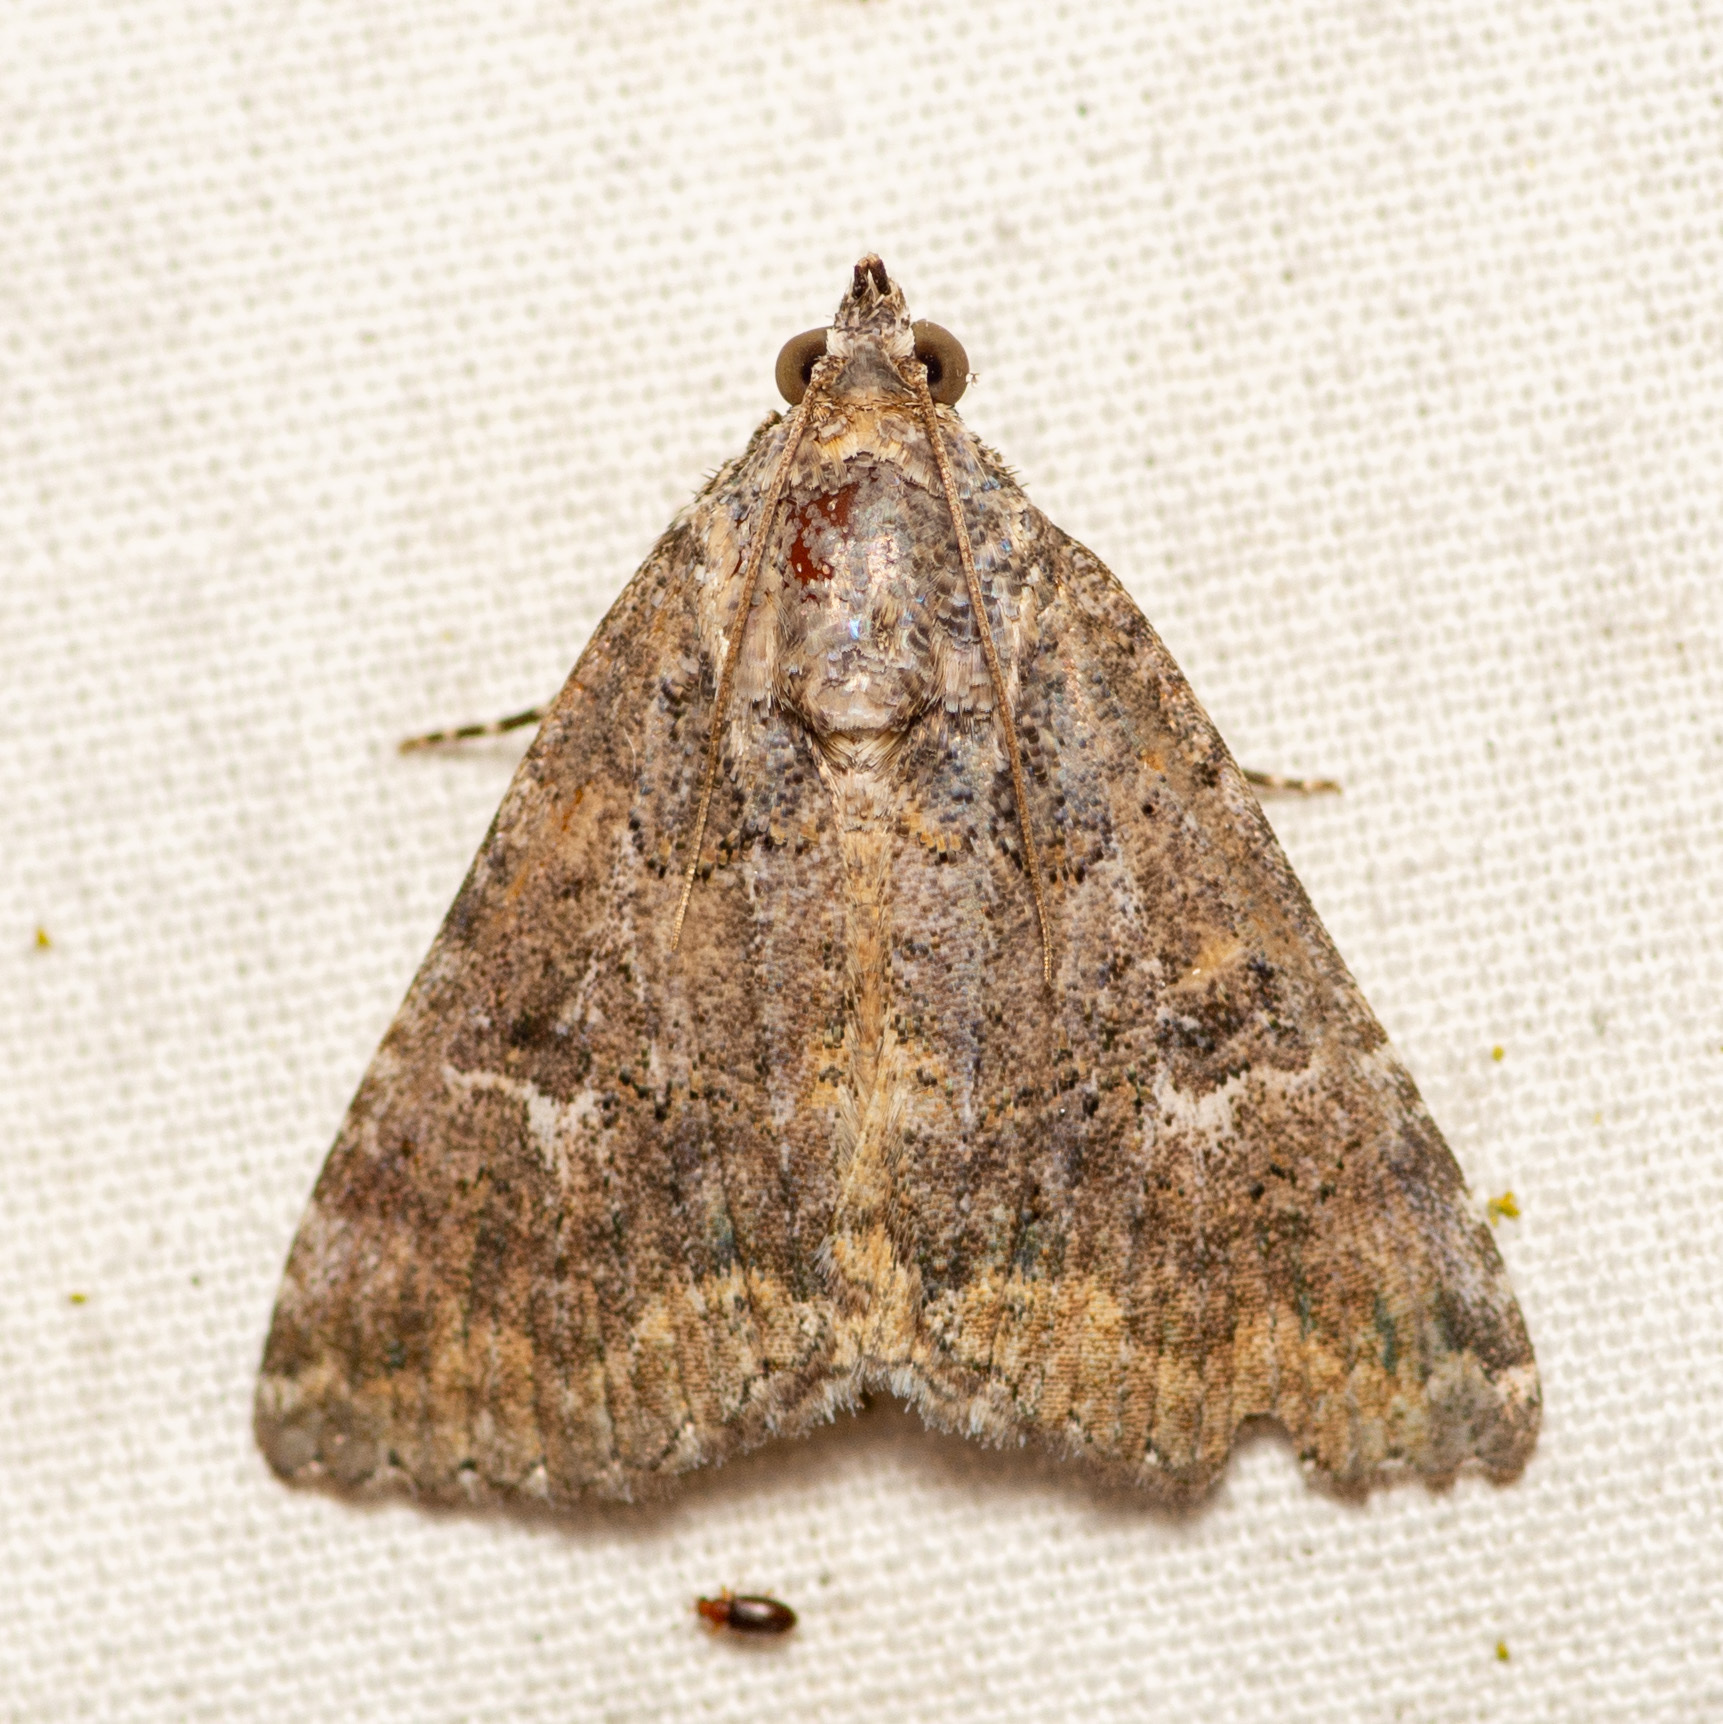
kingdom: Animalia
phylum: Arthropoda
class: Insecta
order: Lepidoptera
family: Erebidae
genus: Eubolina
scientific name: Eubolina impartialis
